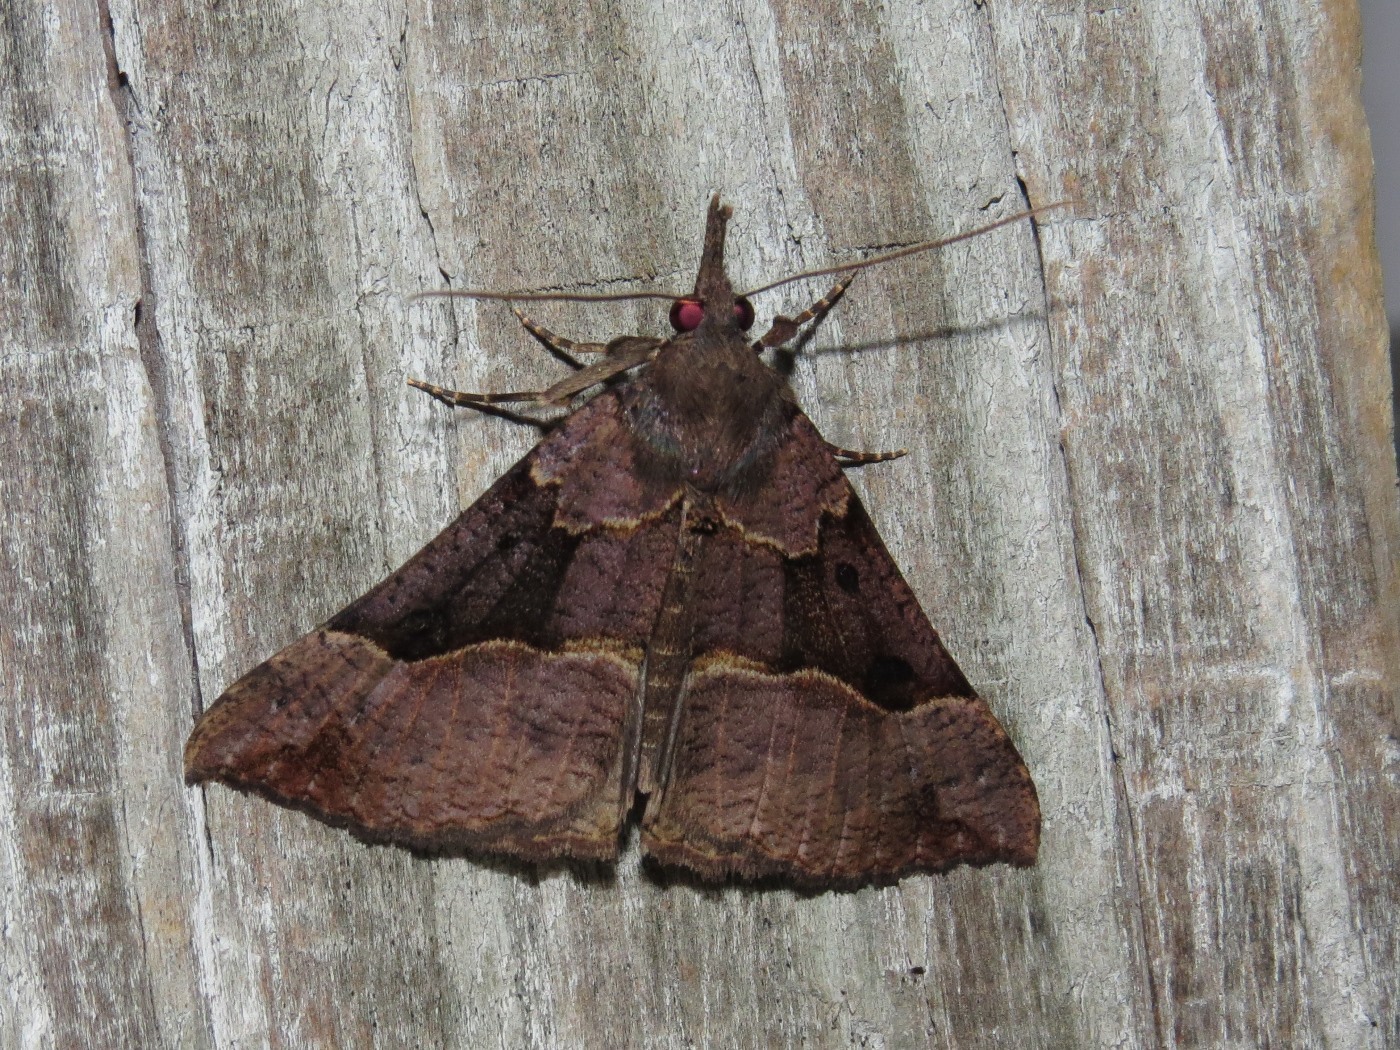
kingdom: Animalia
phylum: Arthropoda
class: Insecta
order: Lepidoptera
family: Erebidae
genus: Hypena
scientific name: Hypena edictalis
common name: Large snout
